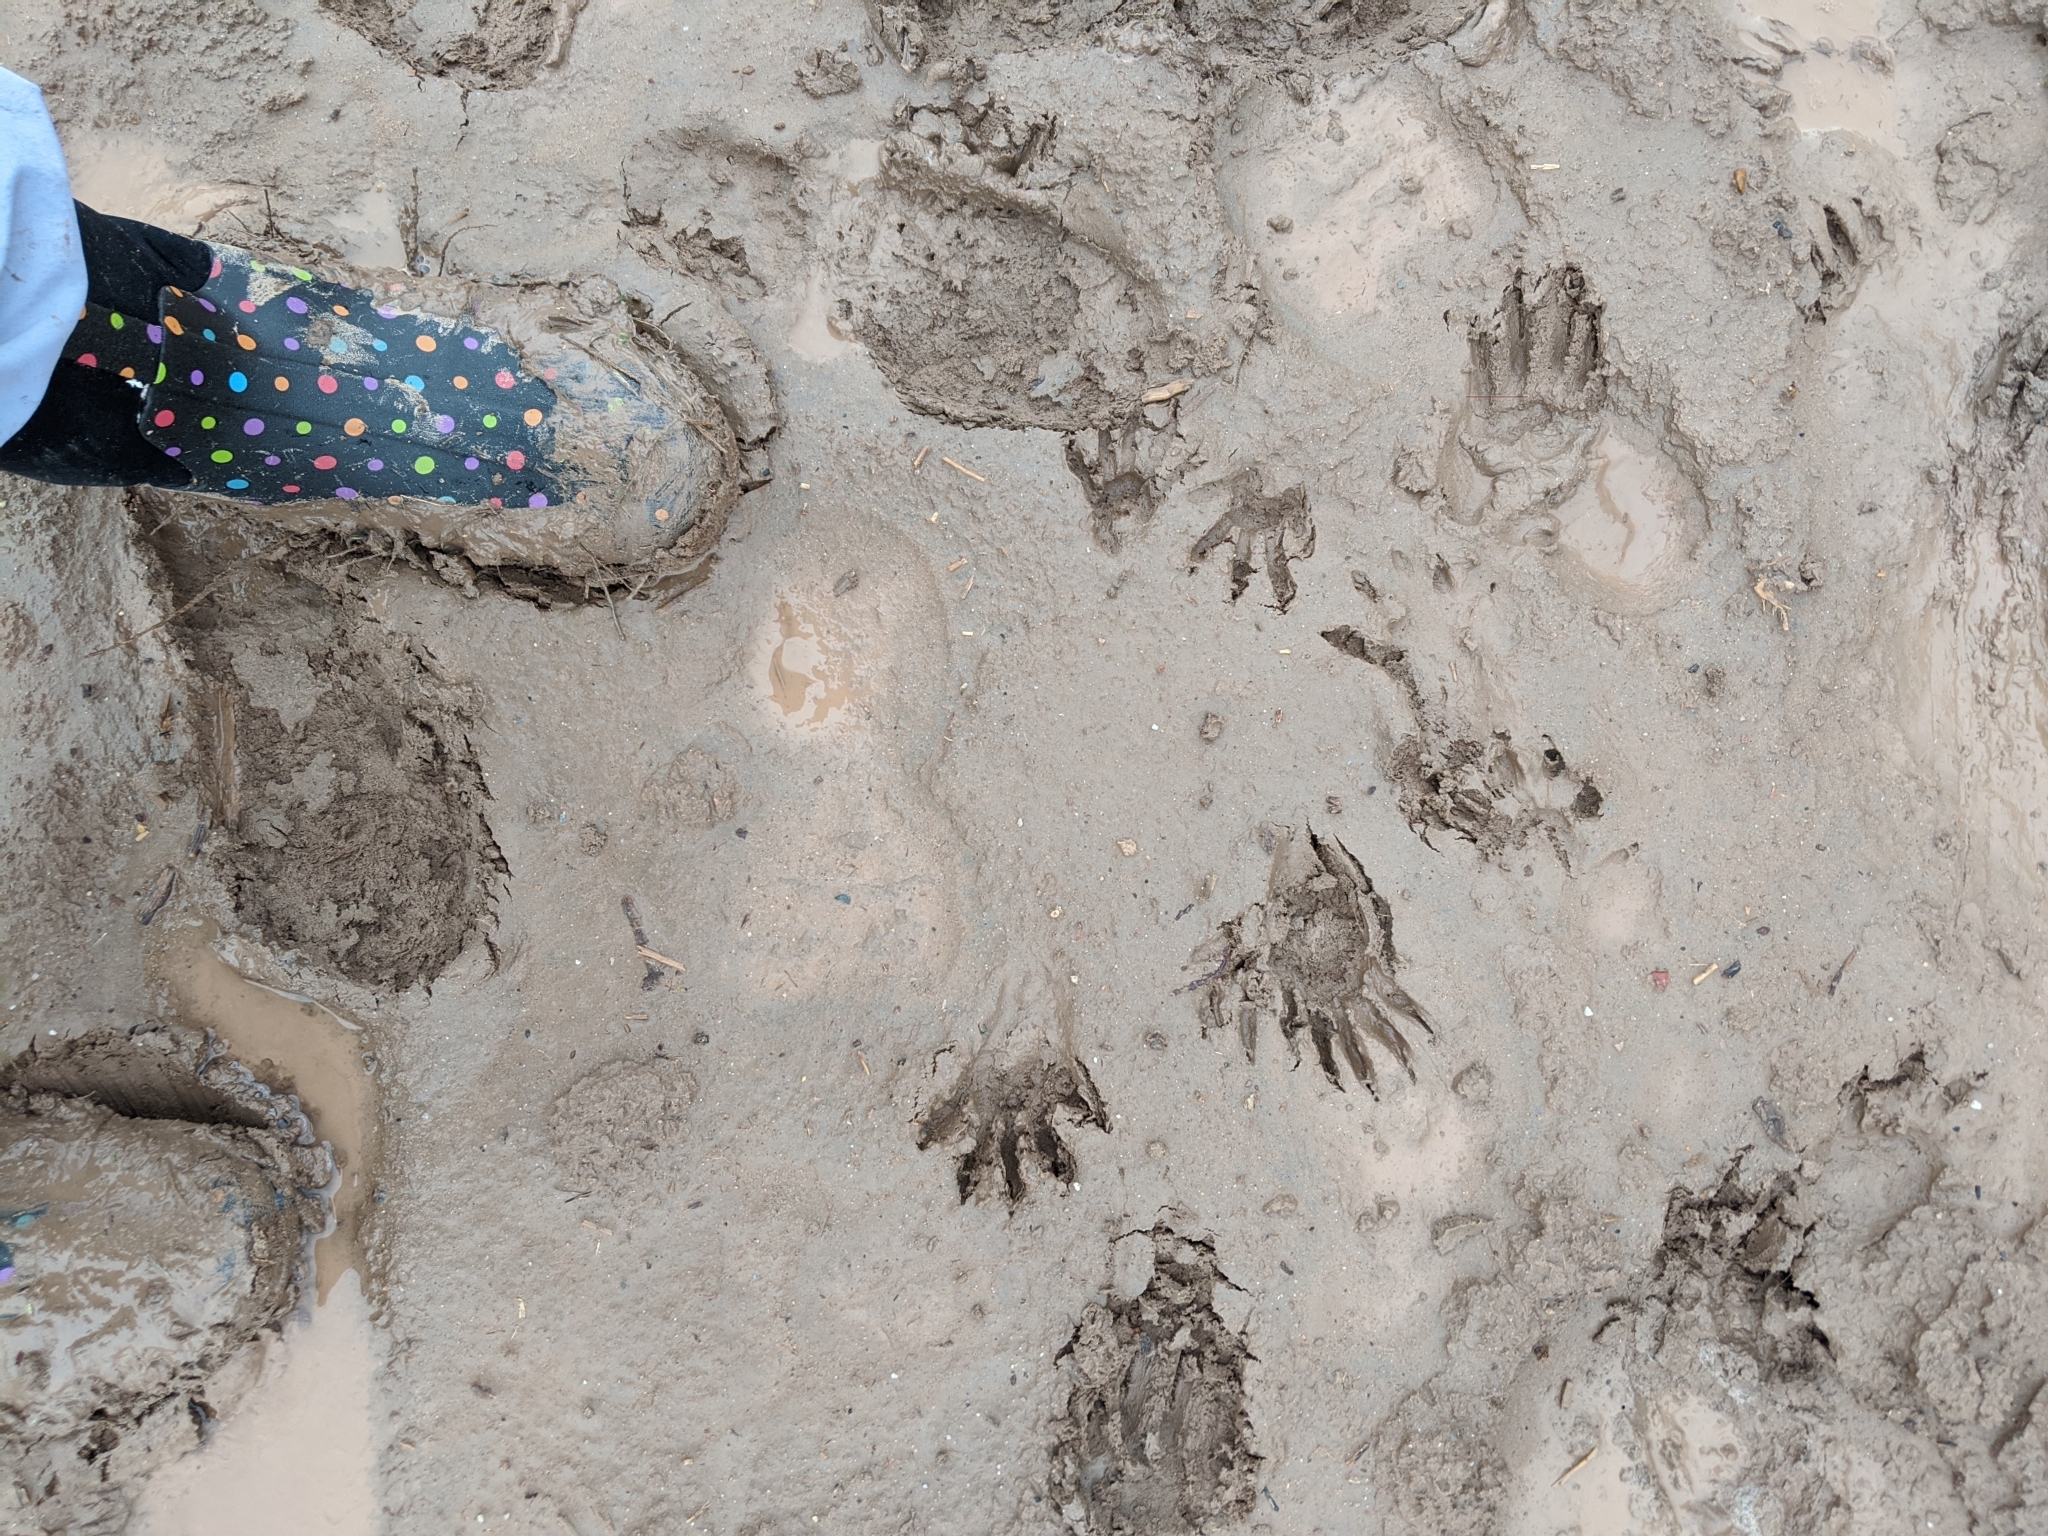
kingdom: Animalia
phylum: Chordata
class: Mammalia
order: Carnivora
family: Procyonidae
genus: Procyon
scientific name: Procyon lotor
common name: Raccoon
